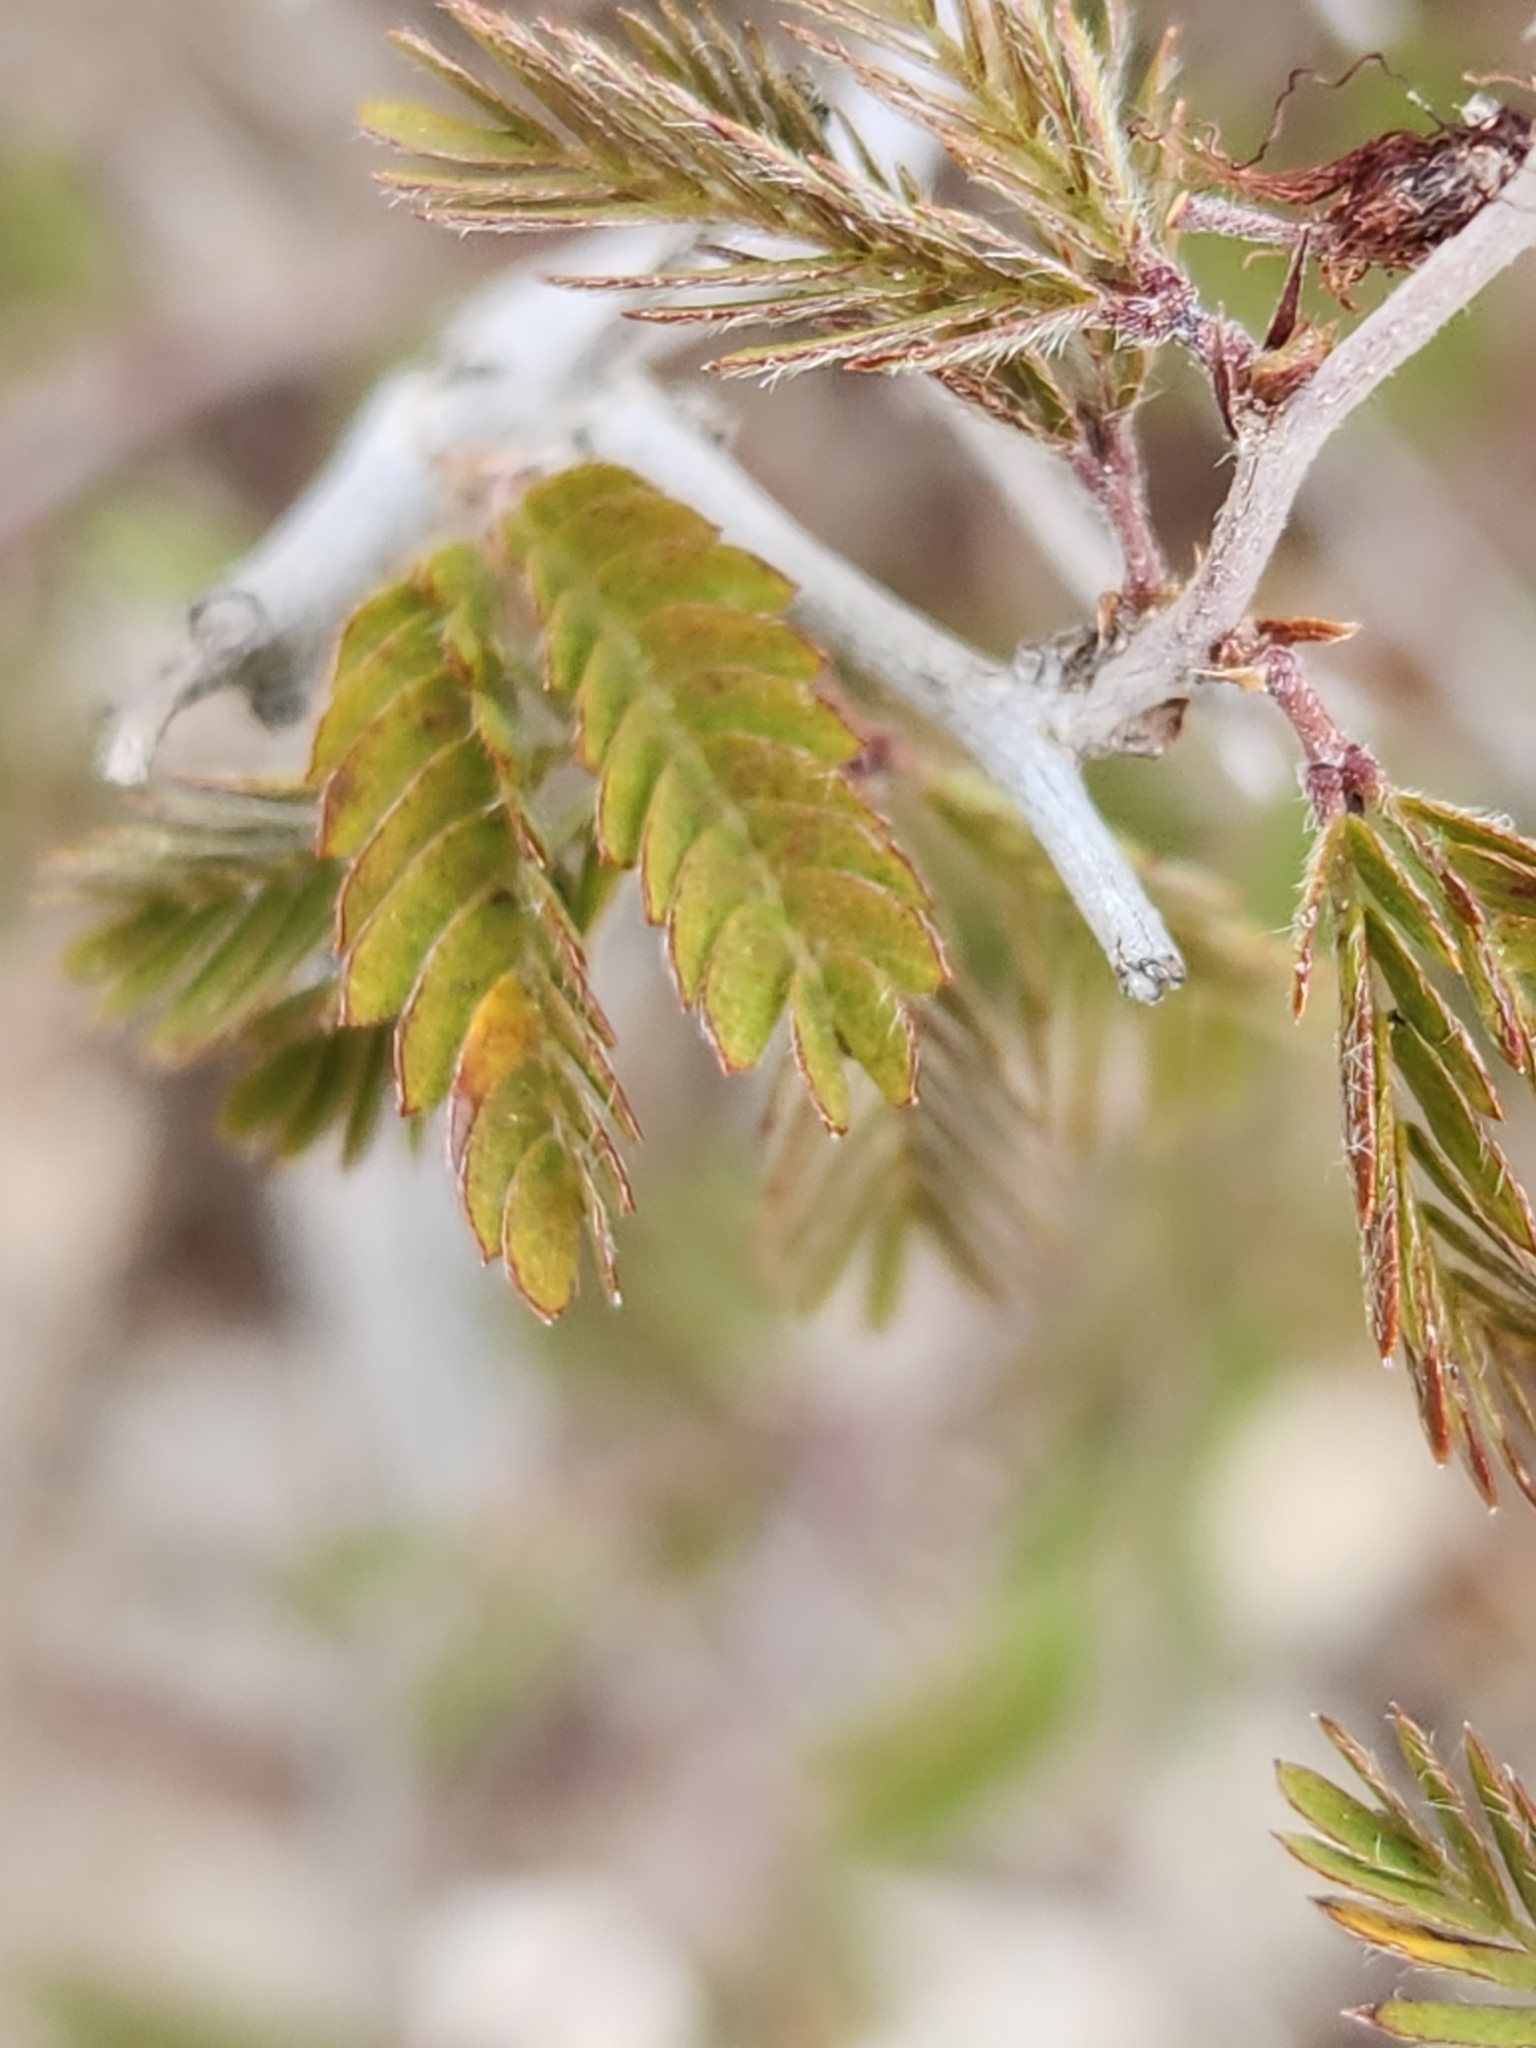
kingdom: Plantae
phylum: Tracheophyta
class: Magnoliopsida
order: Fabales
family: Fabaceae
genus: Calliandra
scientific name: Calliandra conferta
